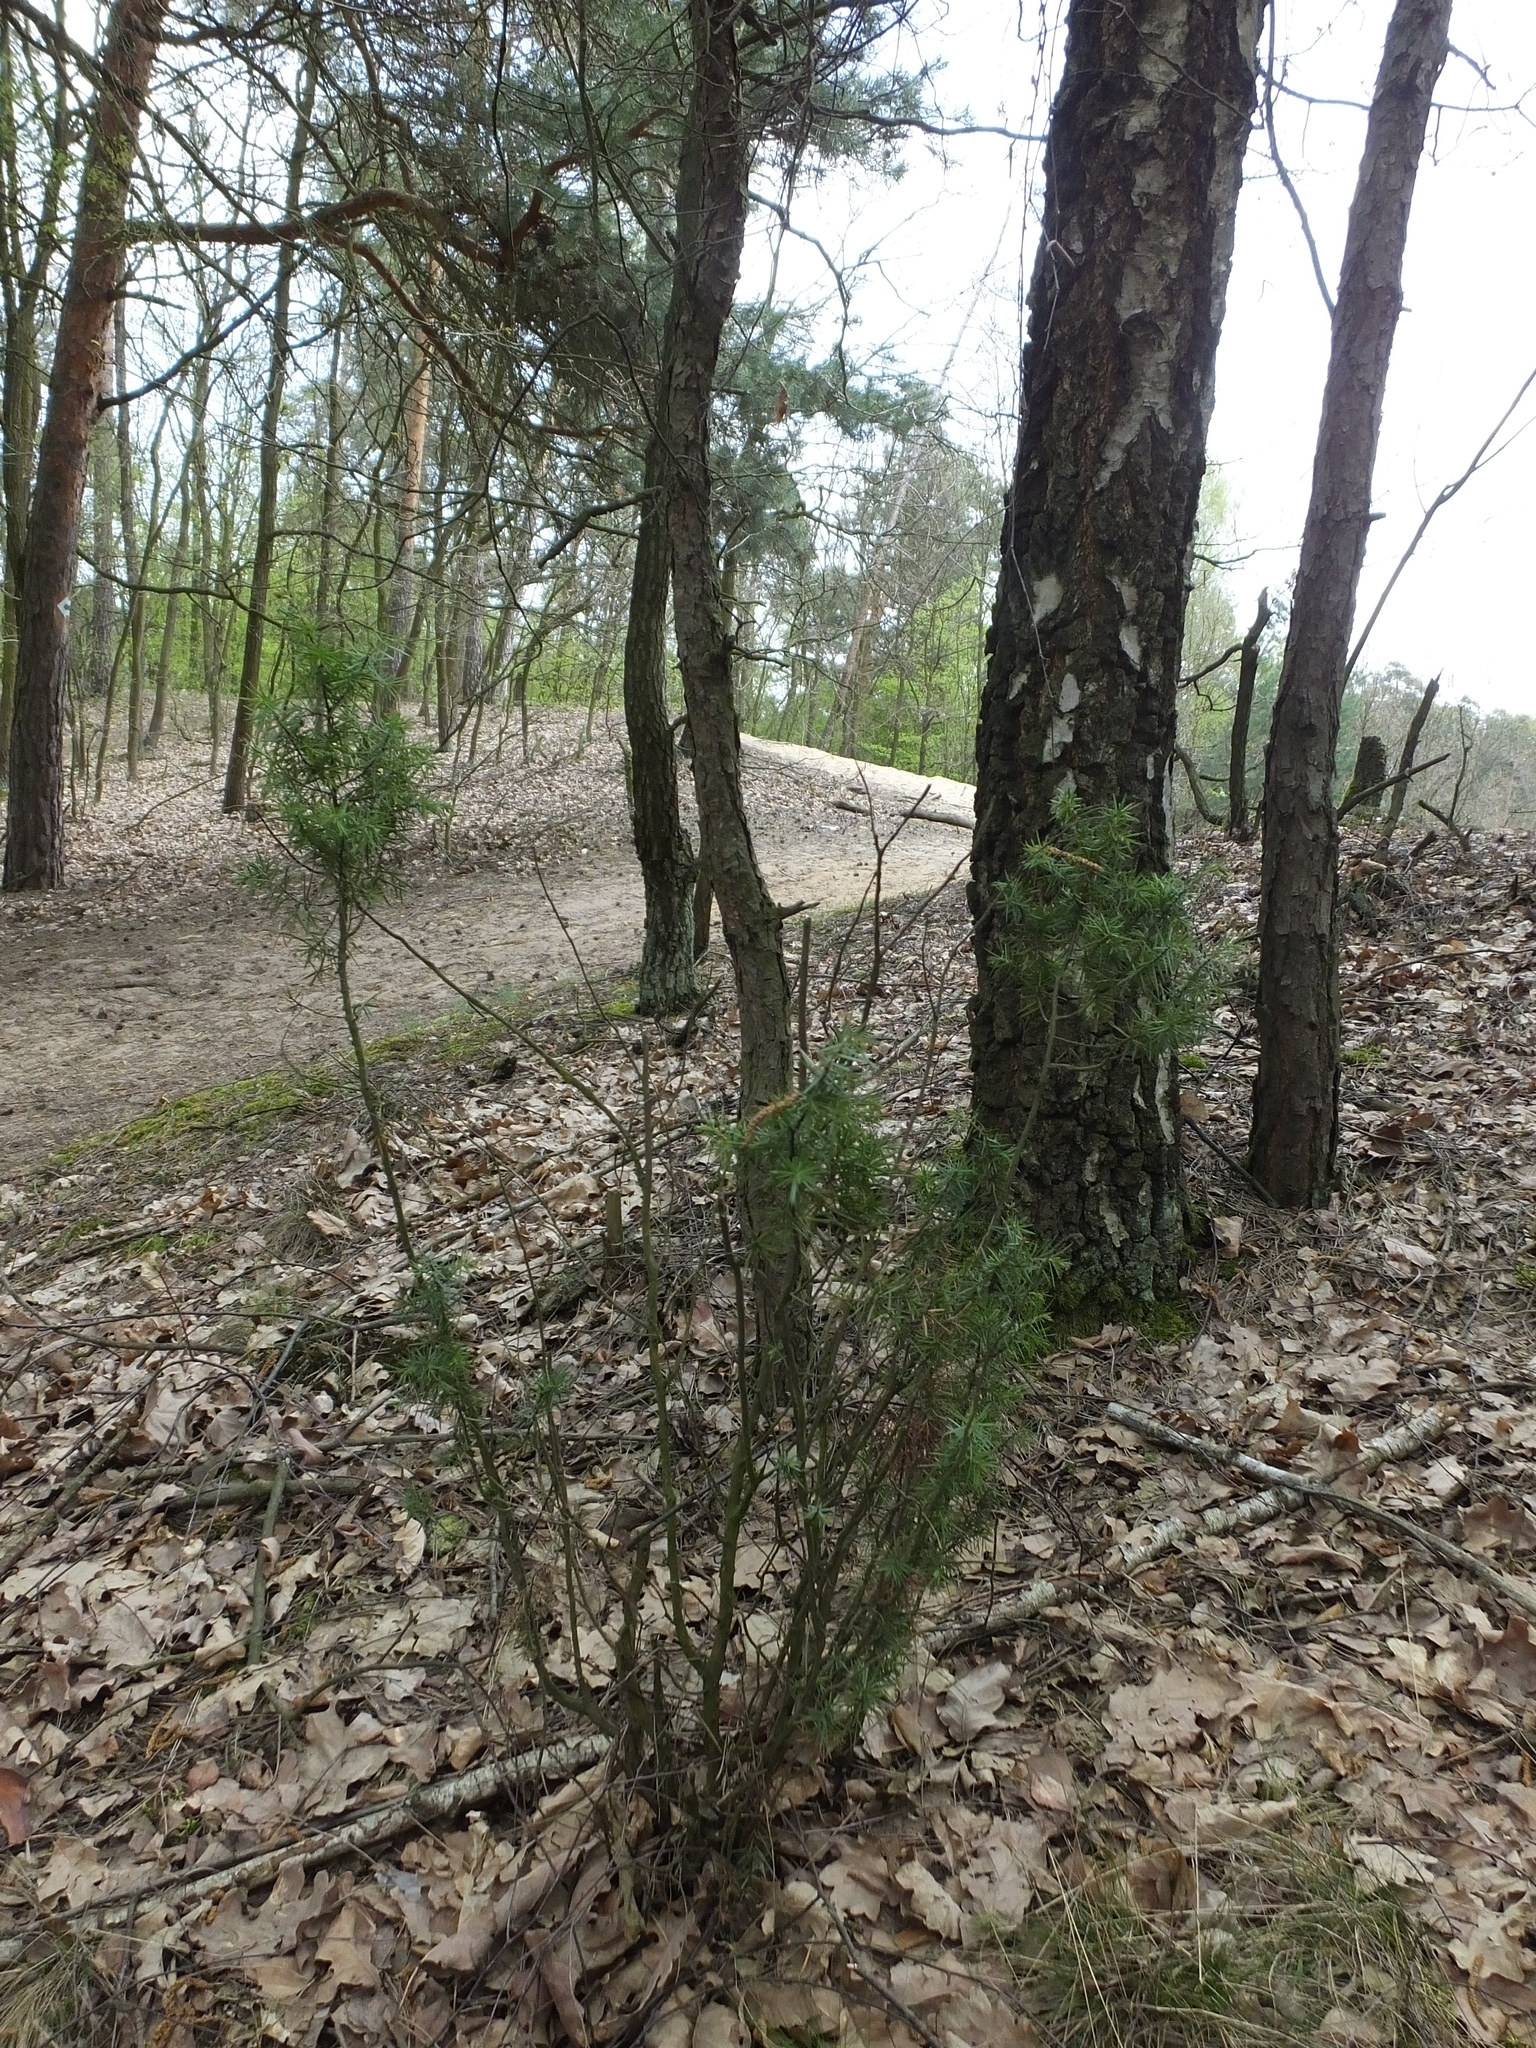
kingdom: Plantae
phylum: Tracheophyta
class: Pinopsida
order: Pinales
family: Cupressaceae
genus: Juniperus
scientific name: Juniperus communis
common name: Common juniper
